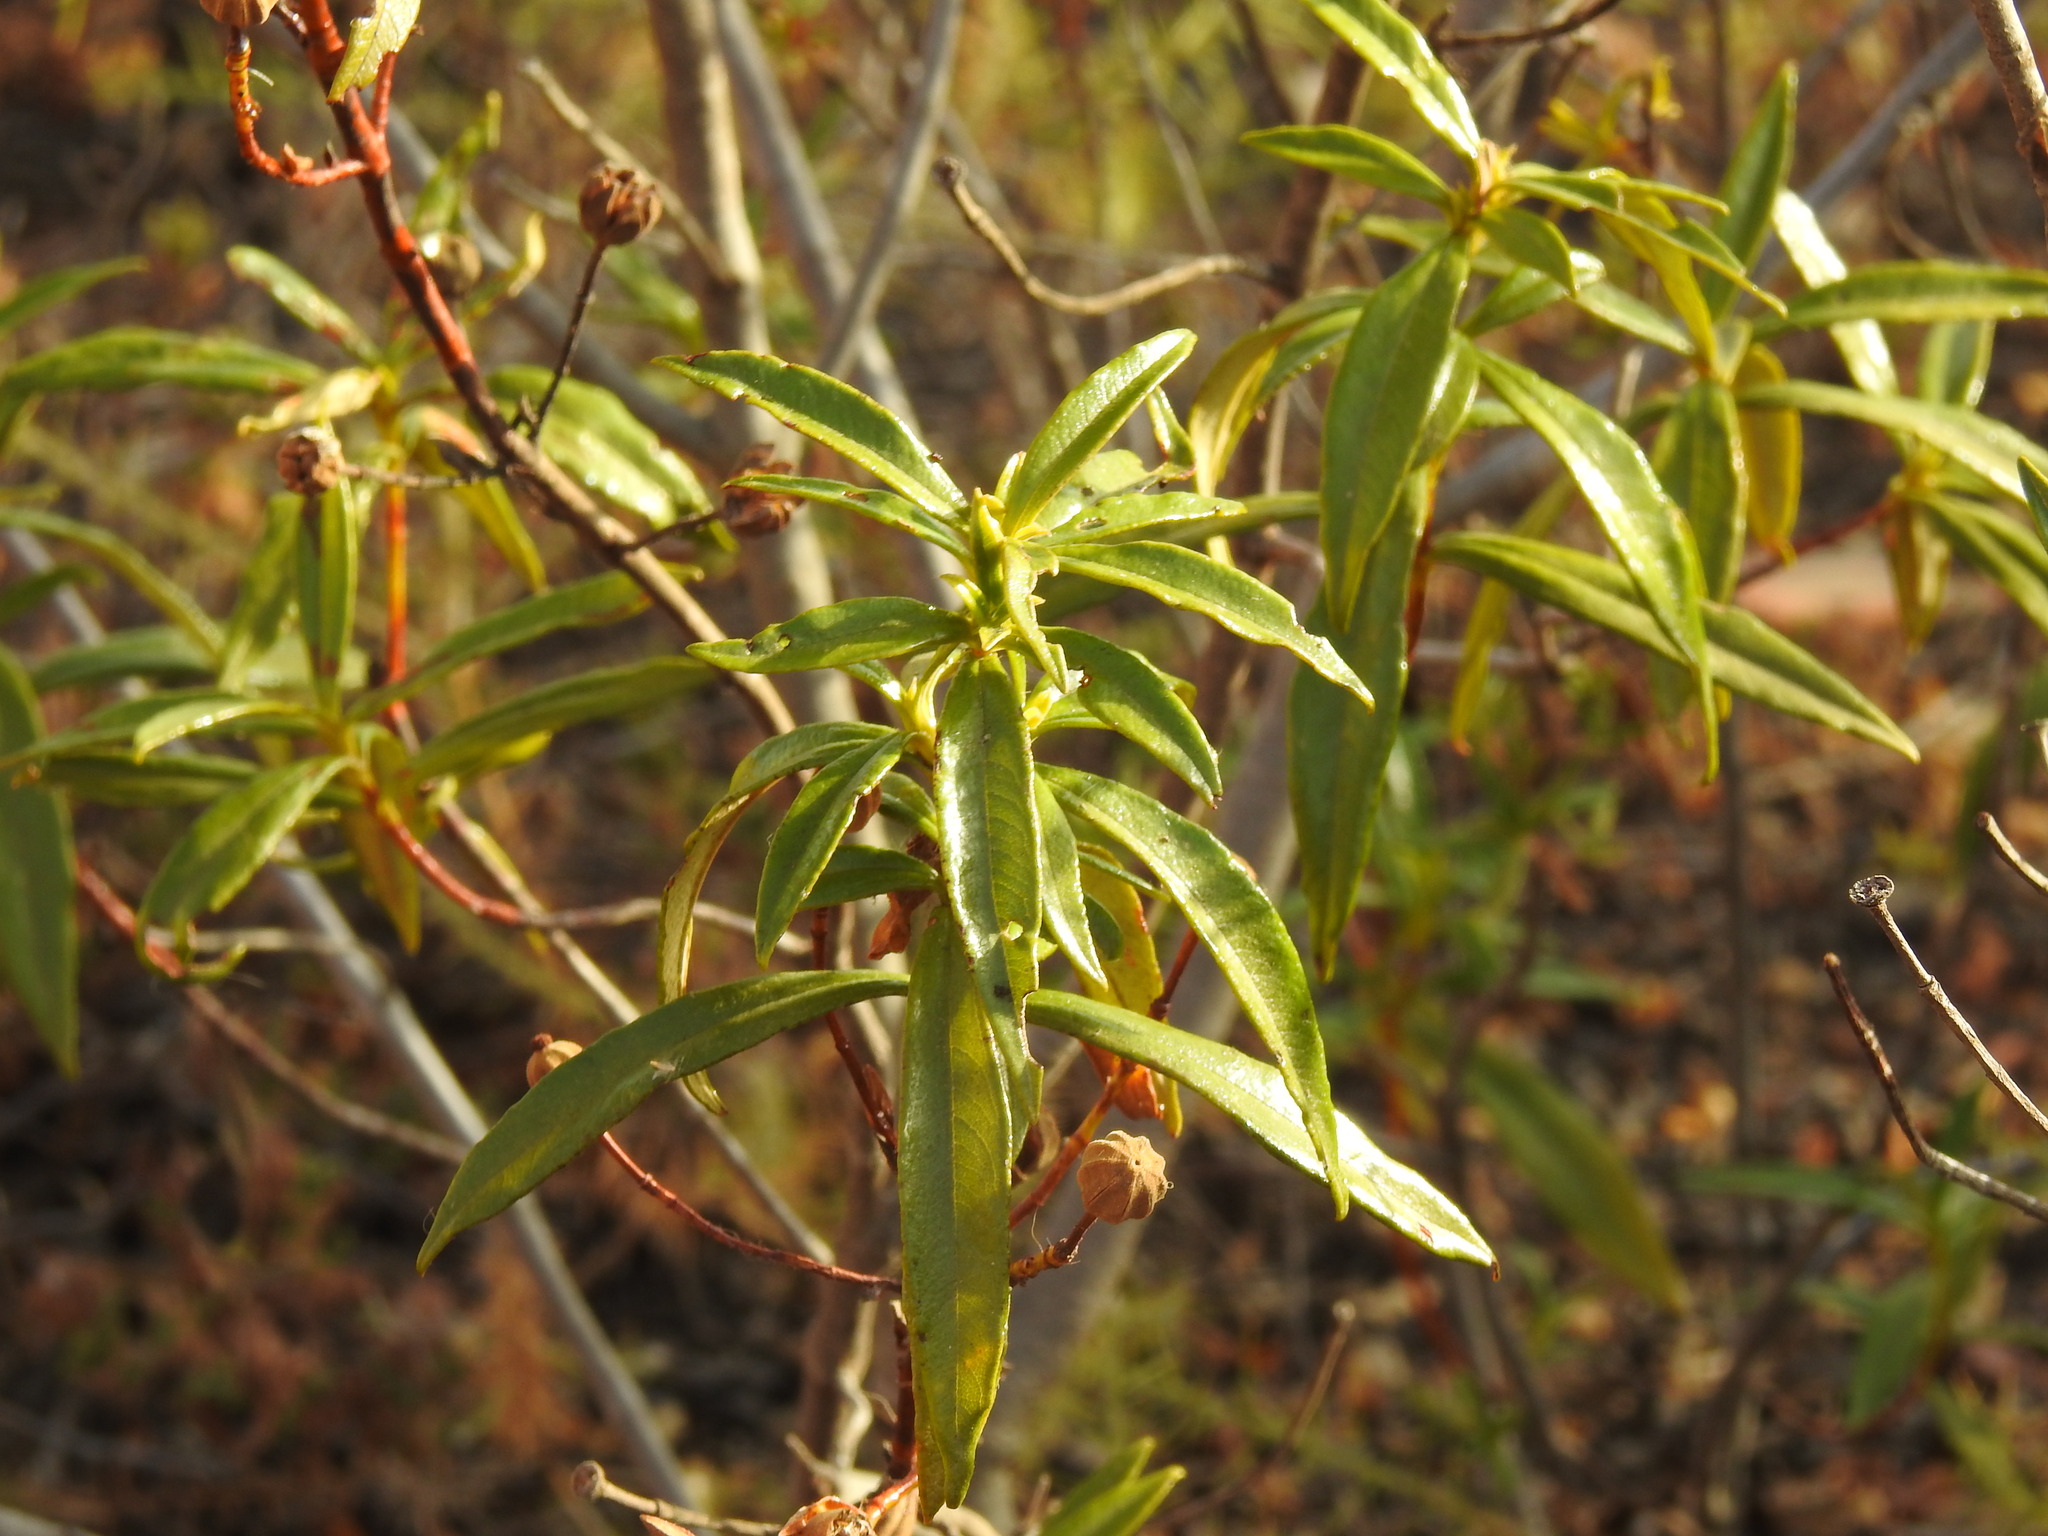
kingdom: Plantae
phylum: Tracheophyta
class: Magnoliopsida
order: Malvales
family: Cistaceae
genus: Cistus
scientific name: Cistus ladanifer
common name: Common gum cistus
